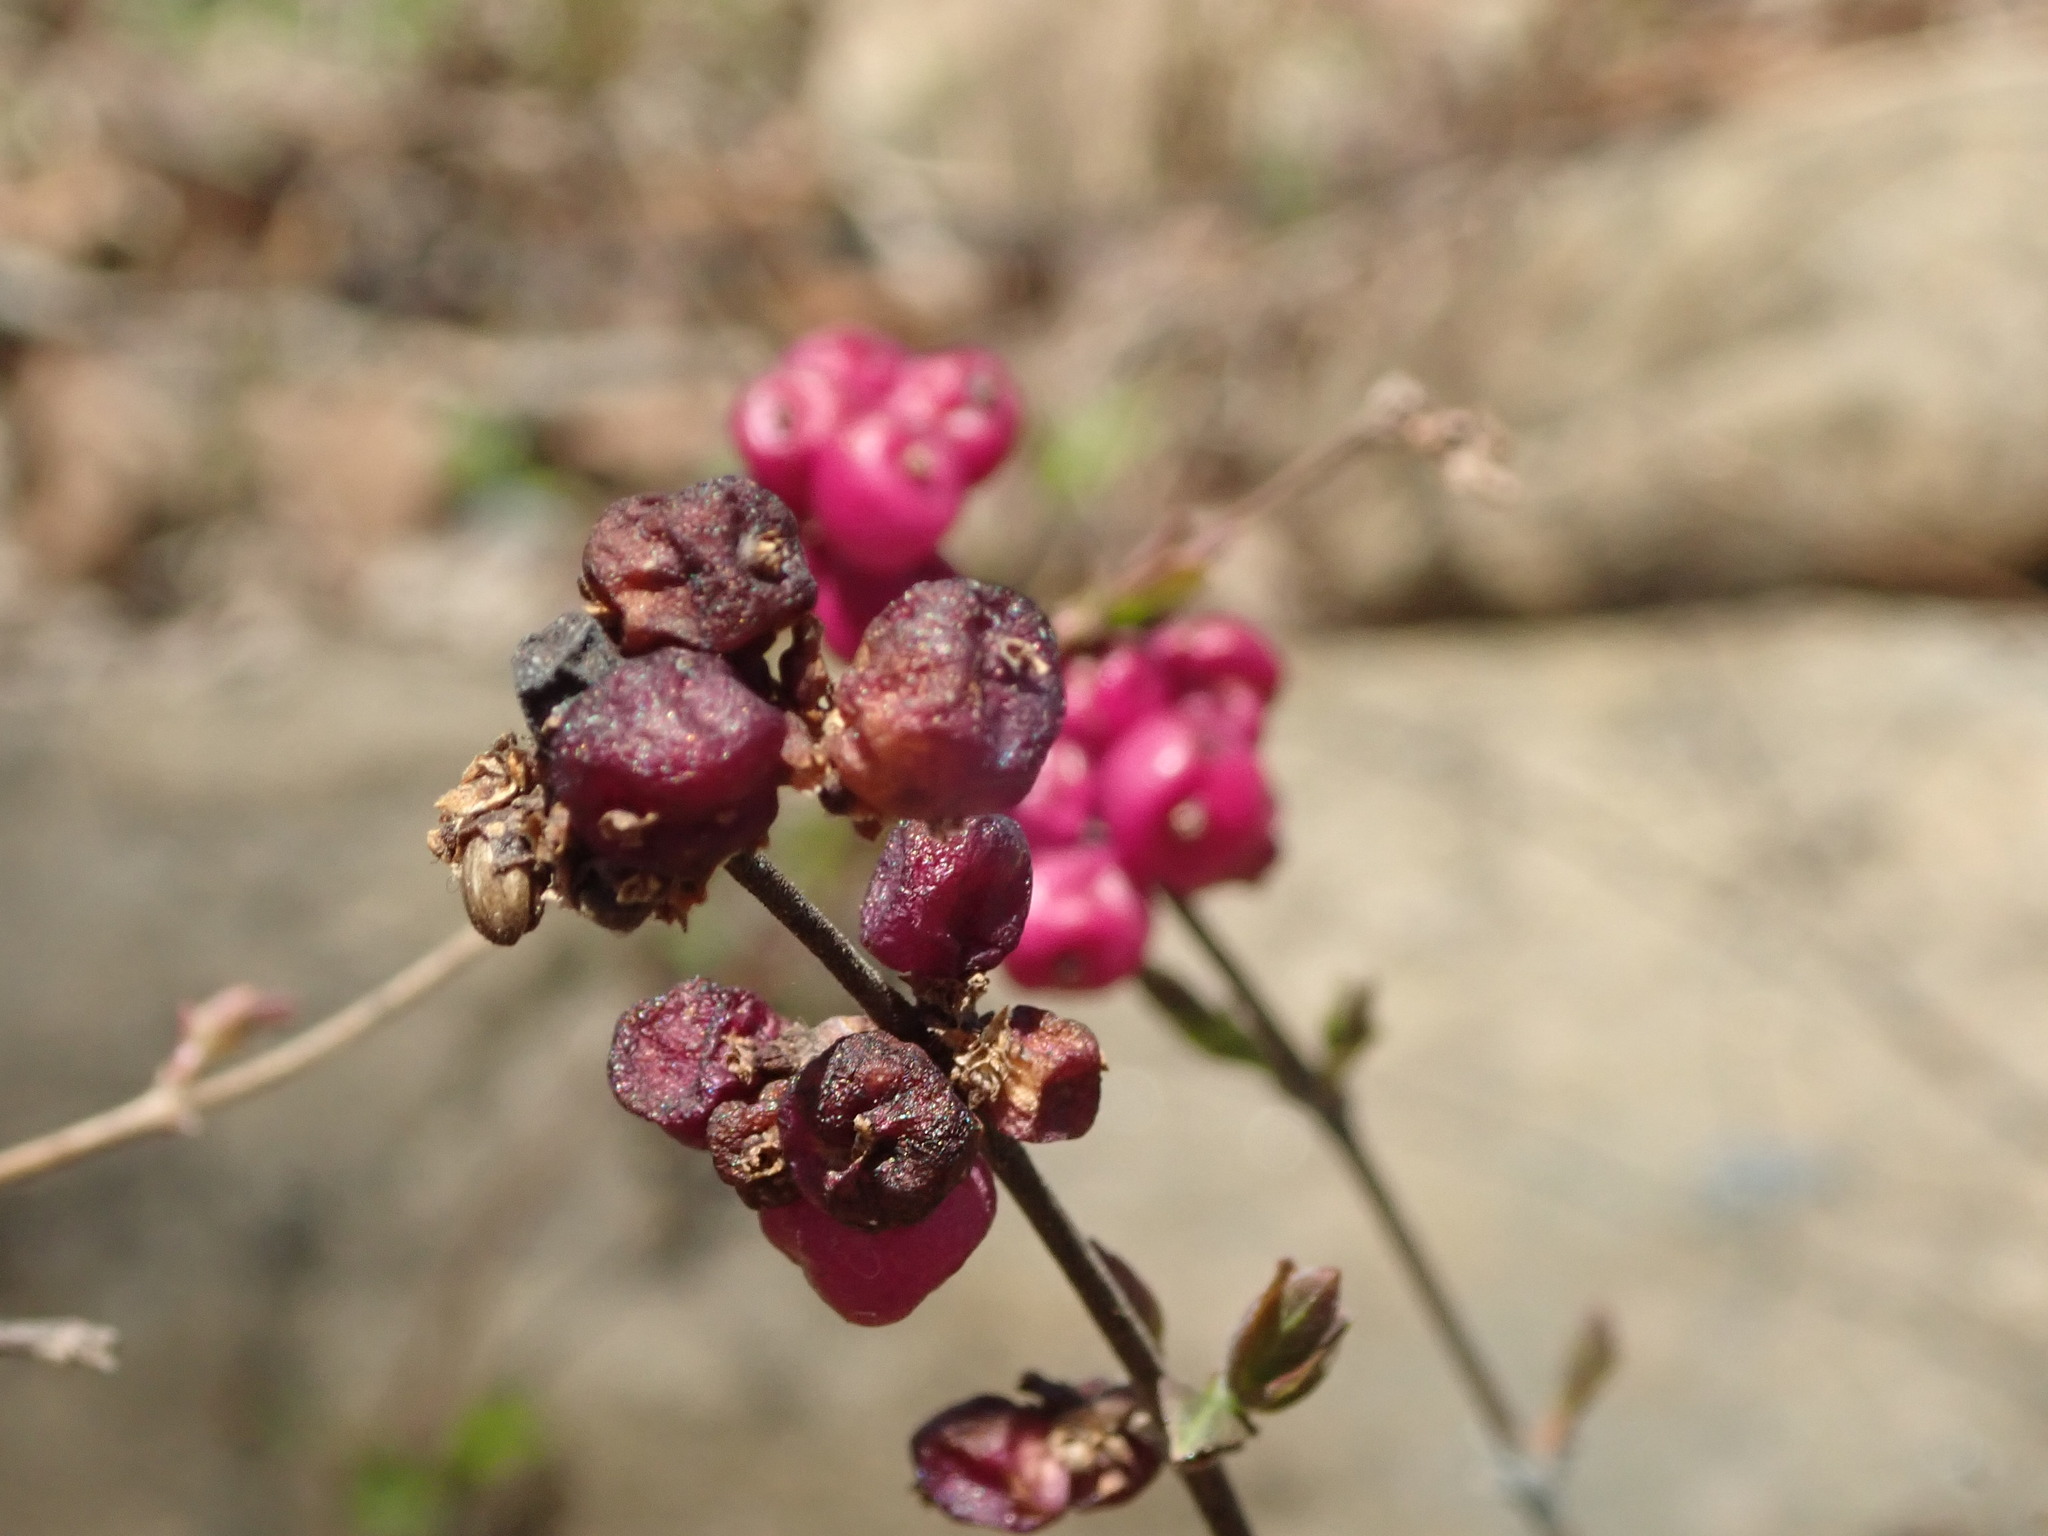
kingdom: Plantae
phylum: Tracheophyta
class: Magnoliopsida
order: Dipsacales
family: Caprifoliaceae
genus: Symphoricarpos
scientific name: Symphoricarpos orbiculatus
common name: Coralberry
